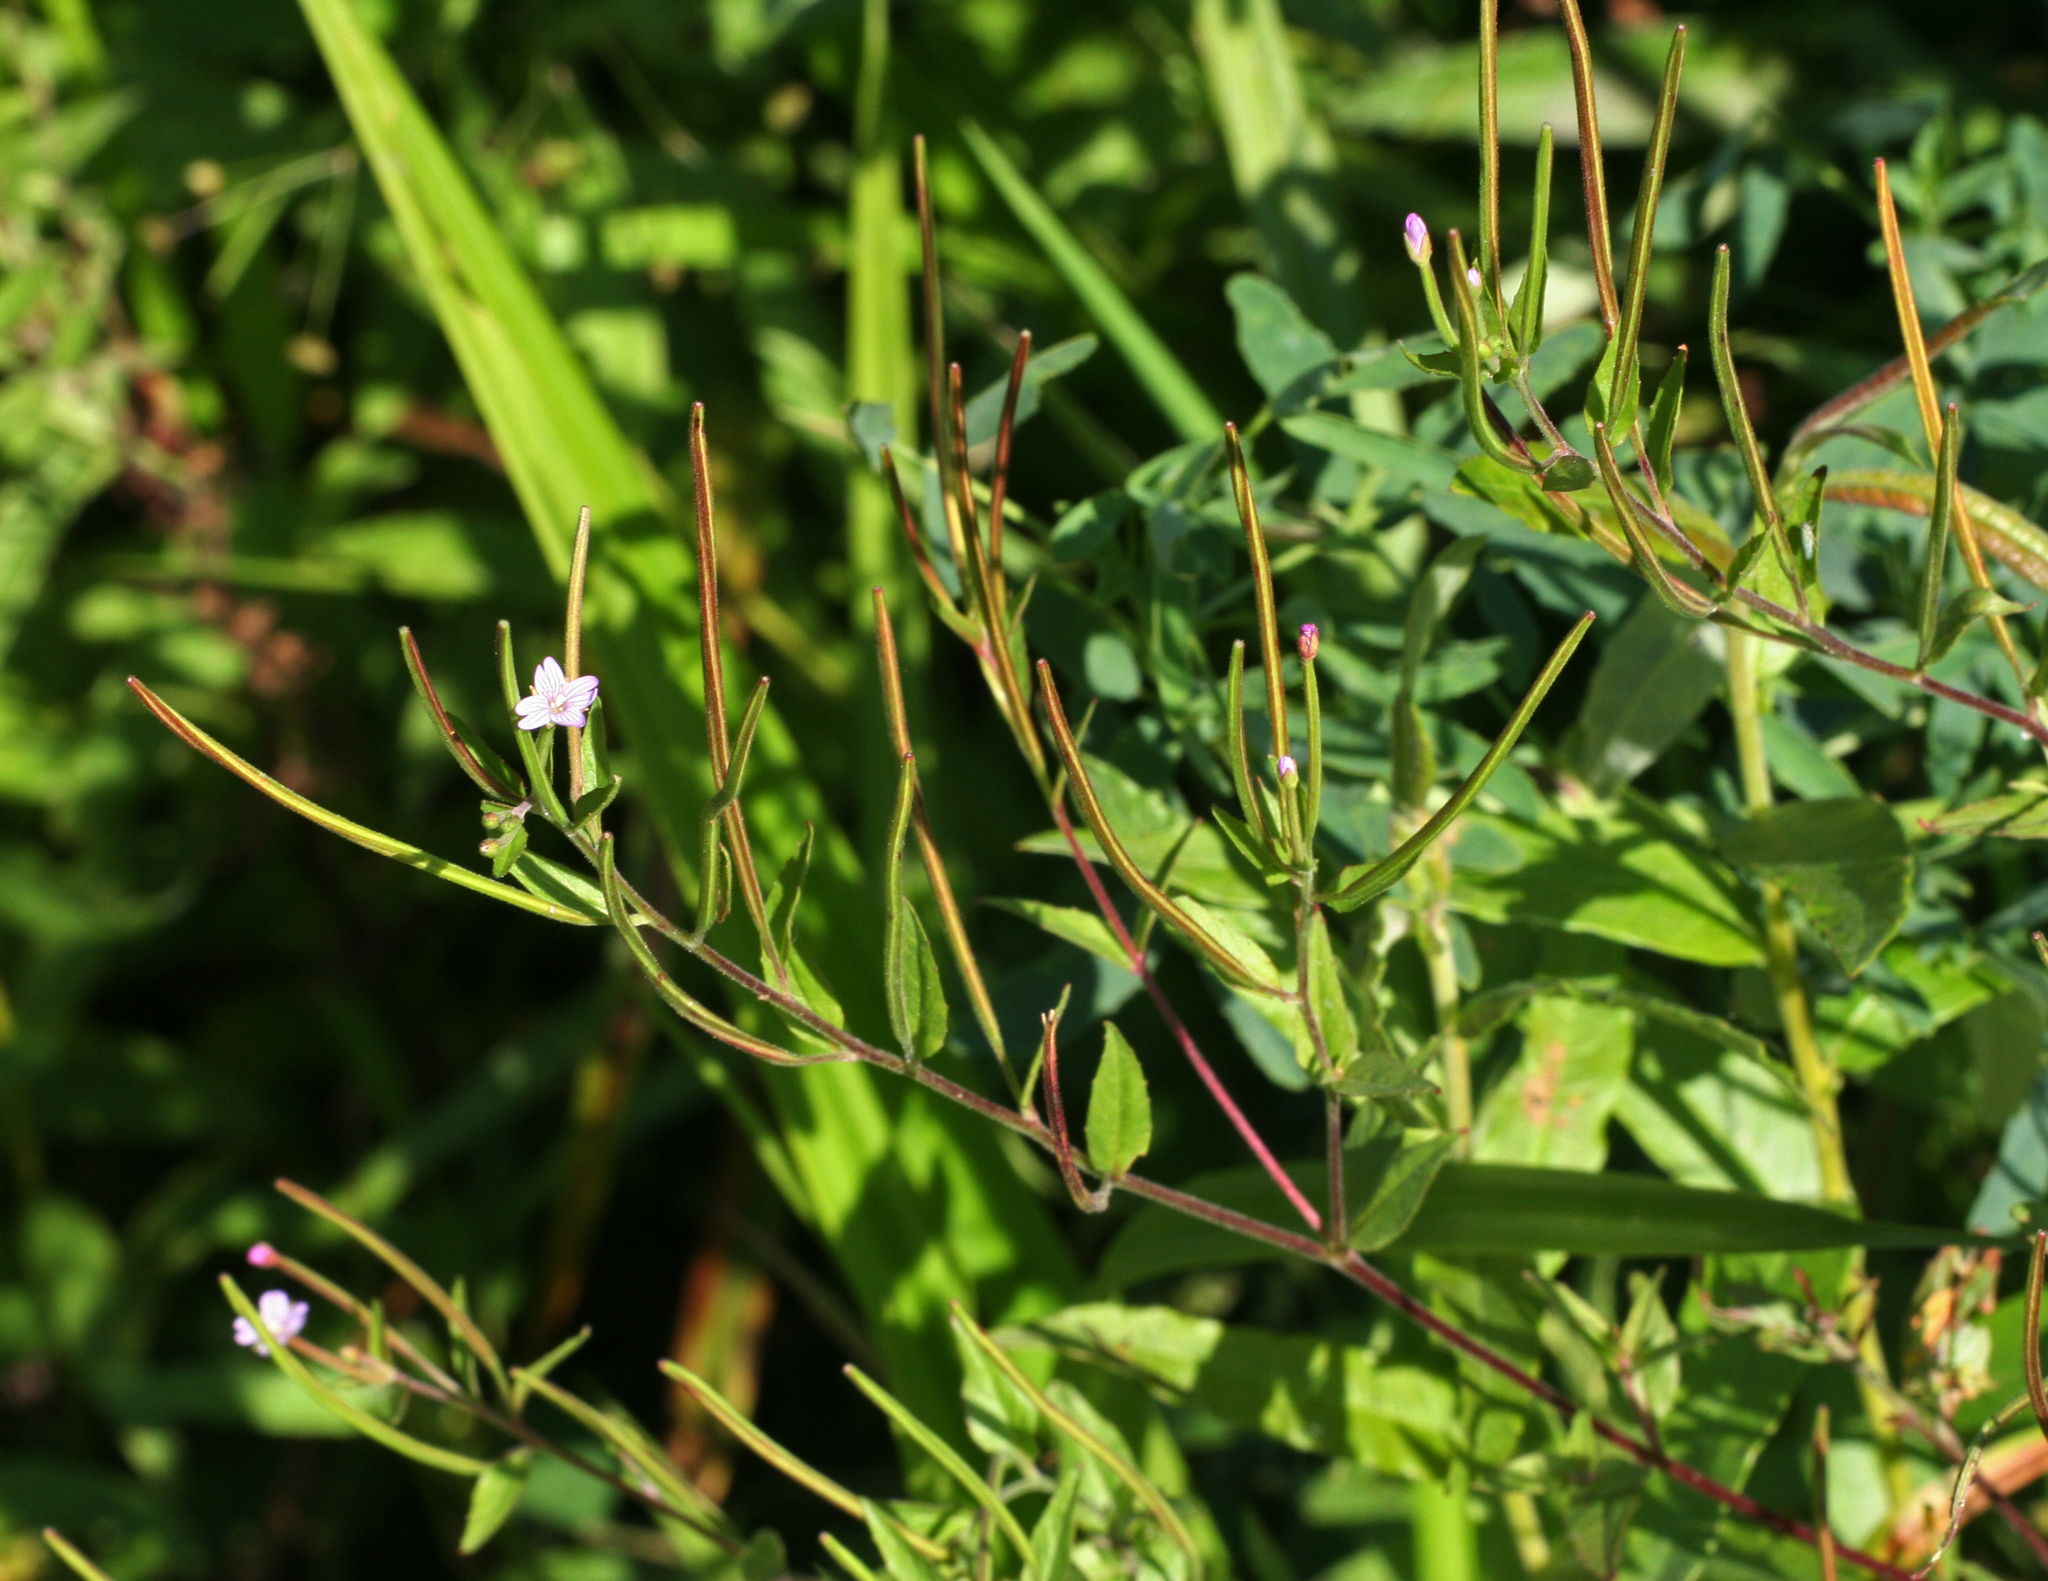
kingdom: Plantae
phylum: Tracheophyta
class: Magnoliopsida
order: Myrtales
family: Onagraceae
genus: Epilobium
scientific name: Epilobium ciliatum
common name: American willowherb
